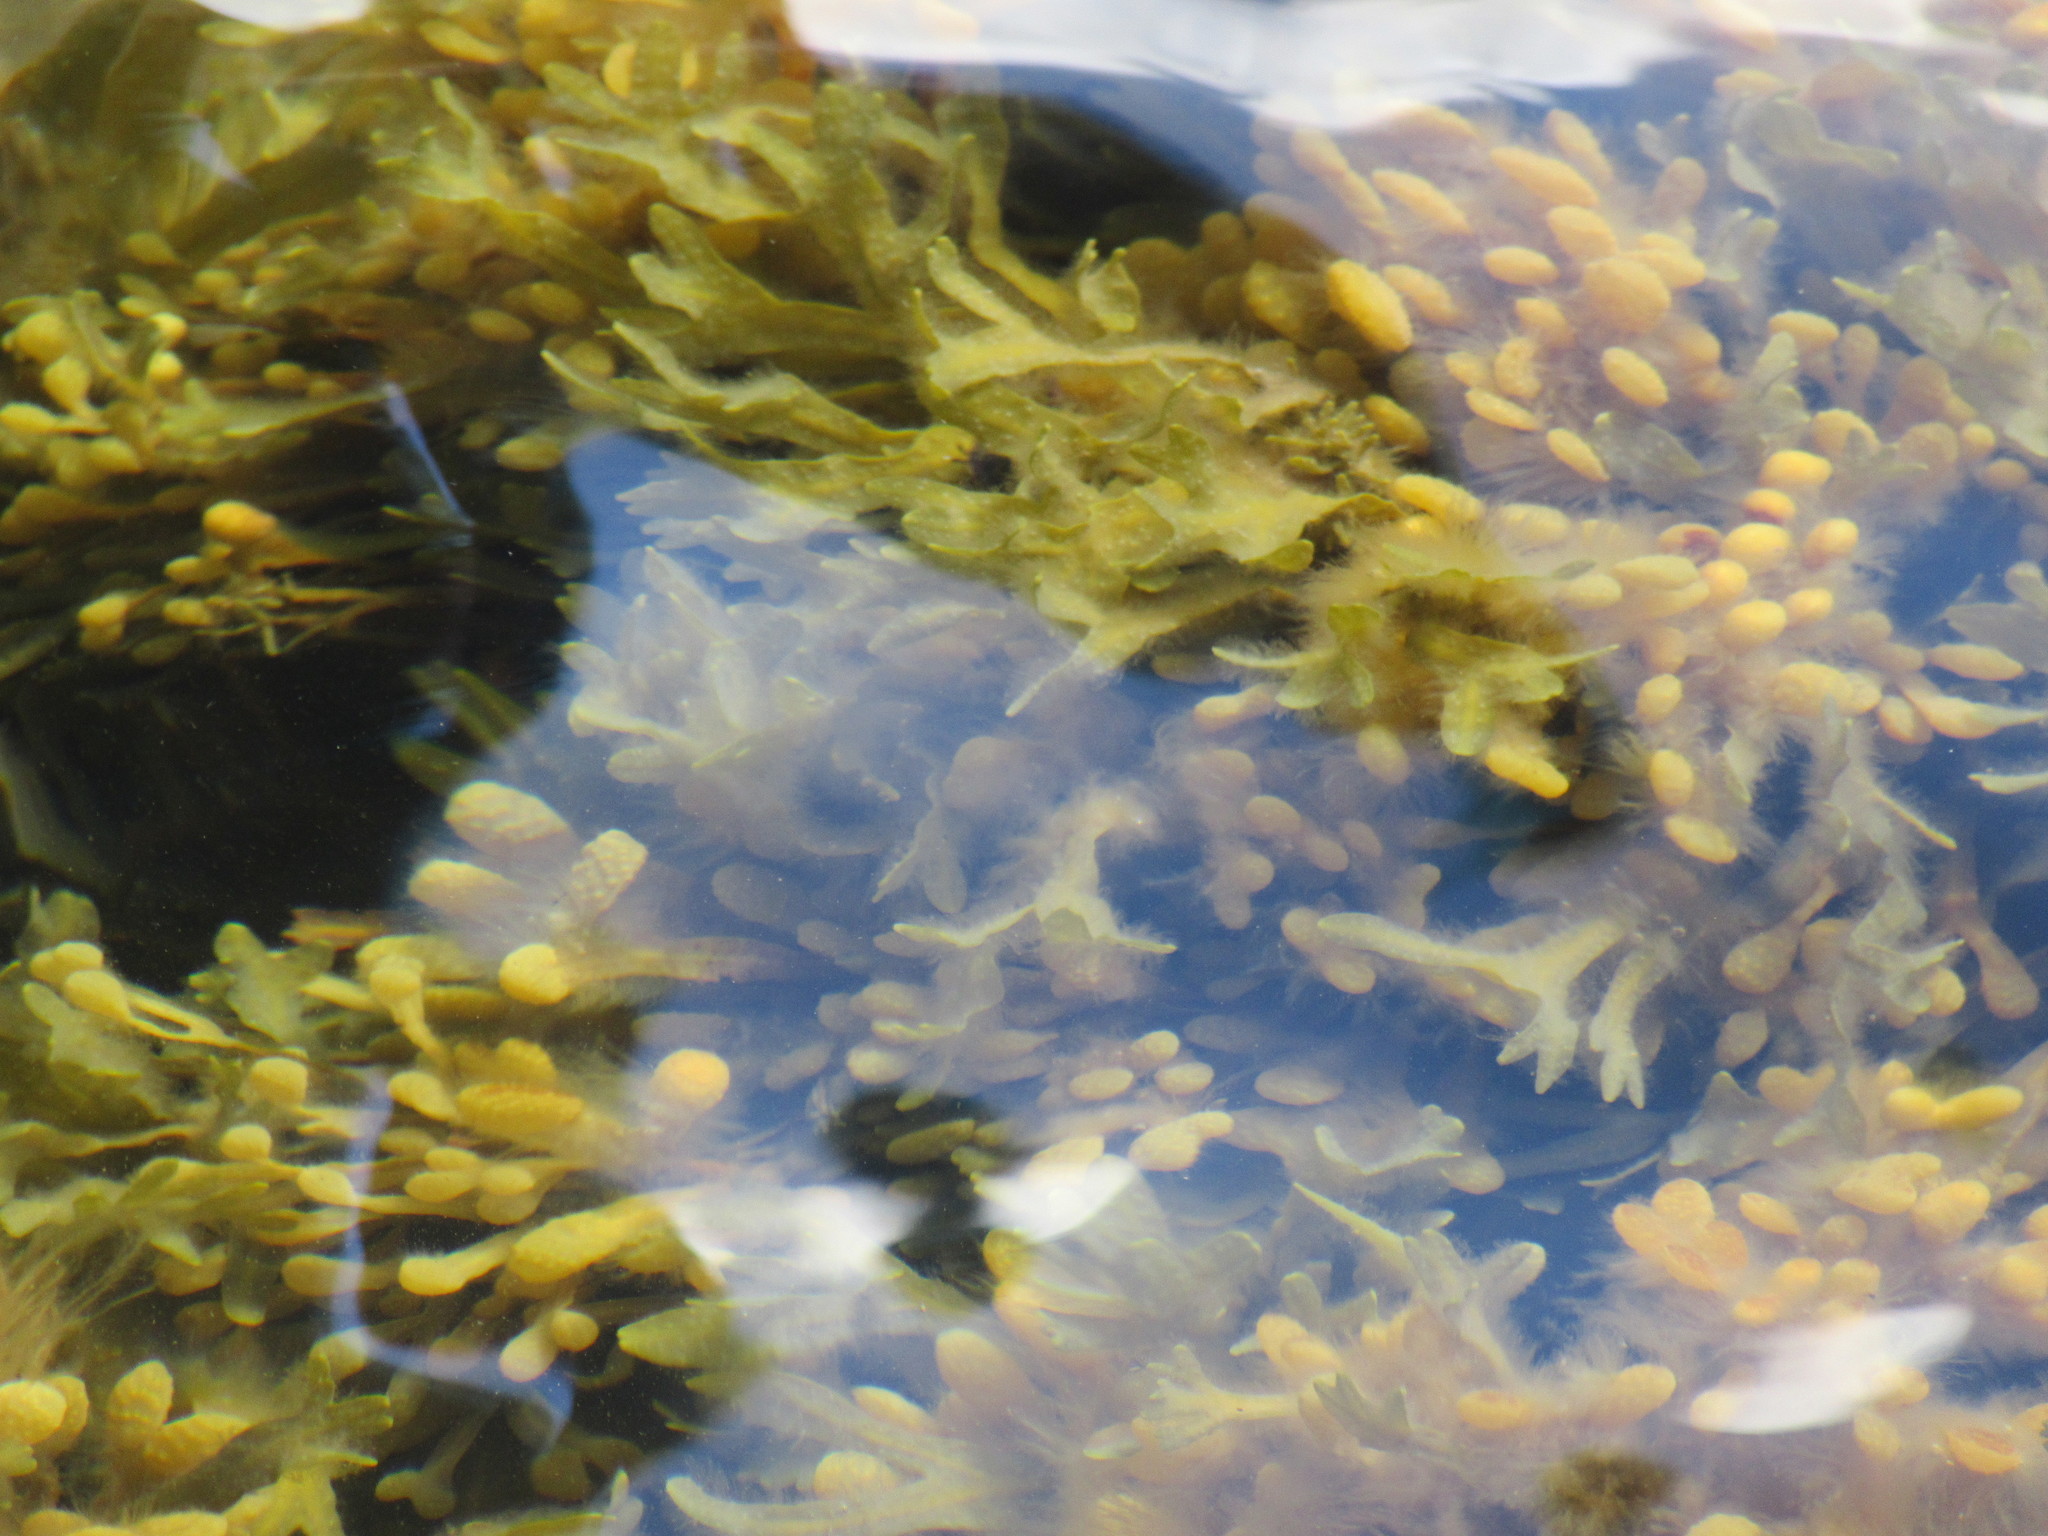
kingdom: Chromista
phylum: Ochrophyta
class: Phaeophyceae
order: Fucales
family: Fucaceae
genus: Fucus
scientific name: Fucus distichus
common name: Rockweed
